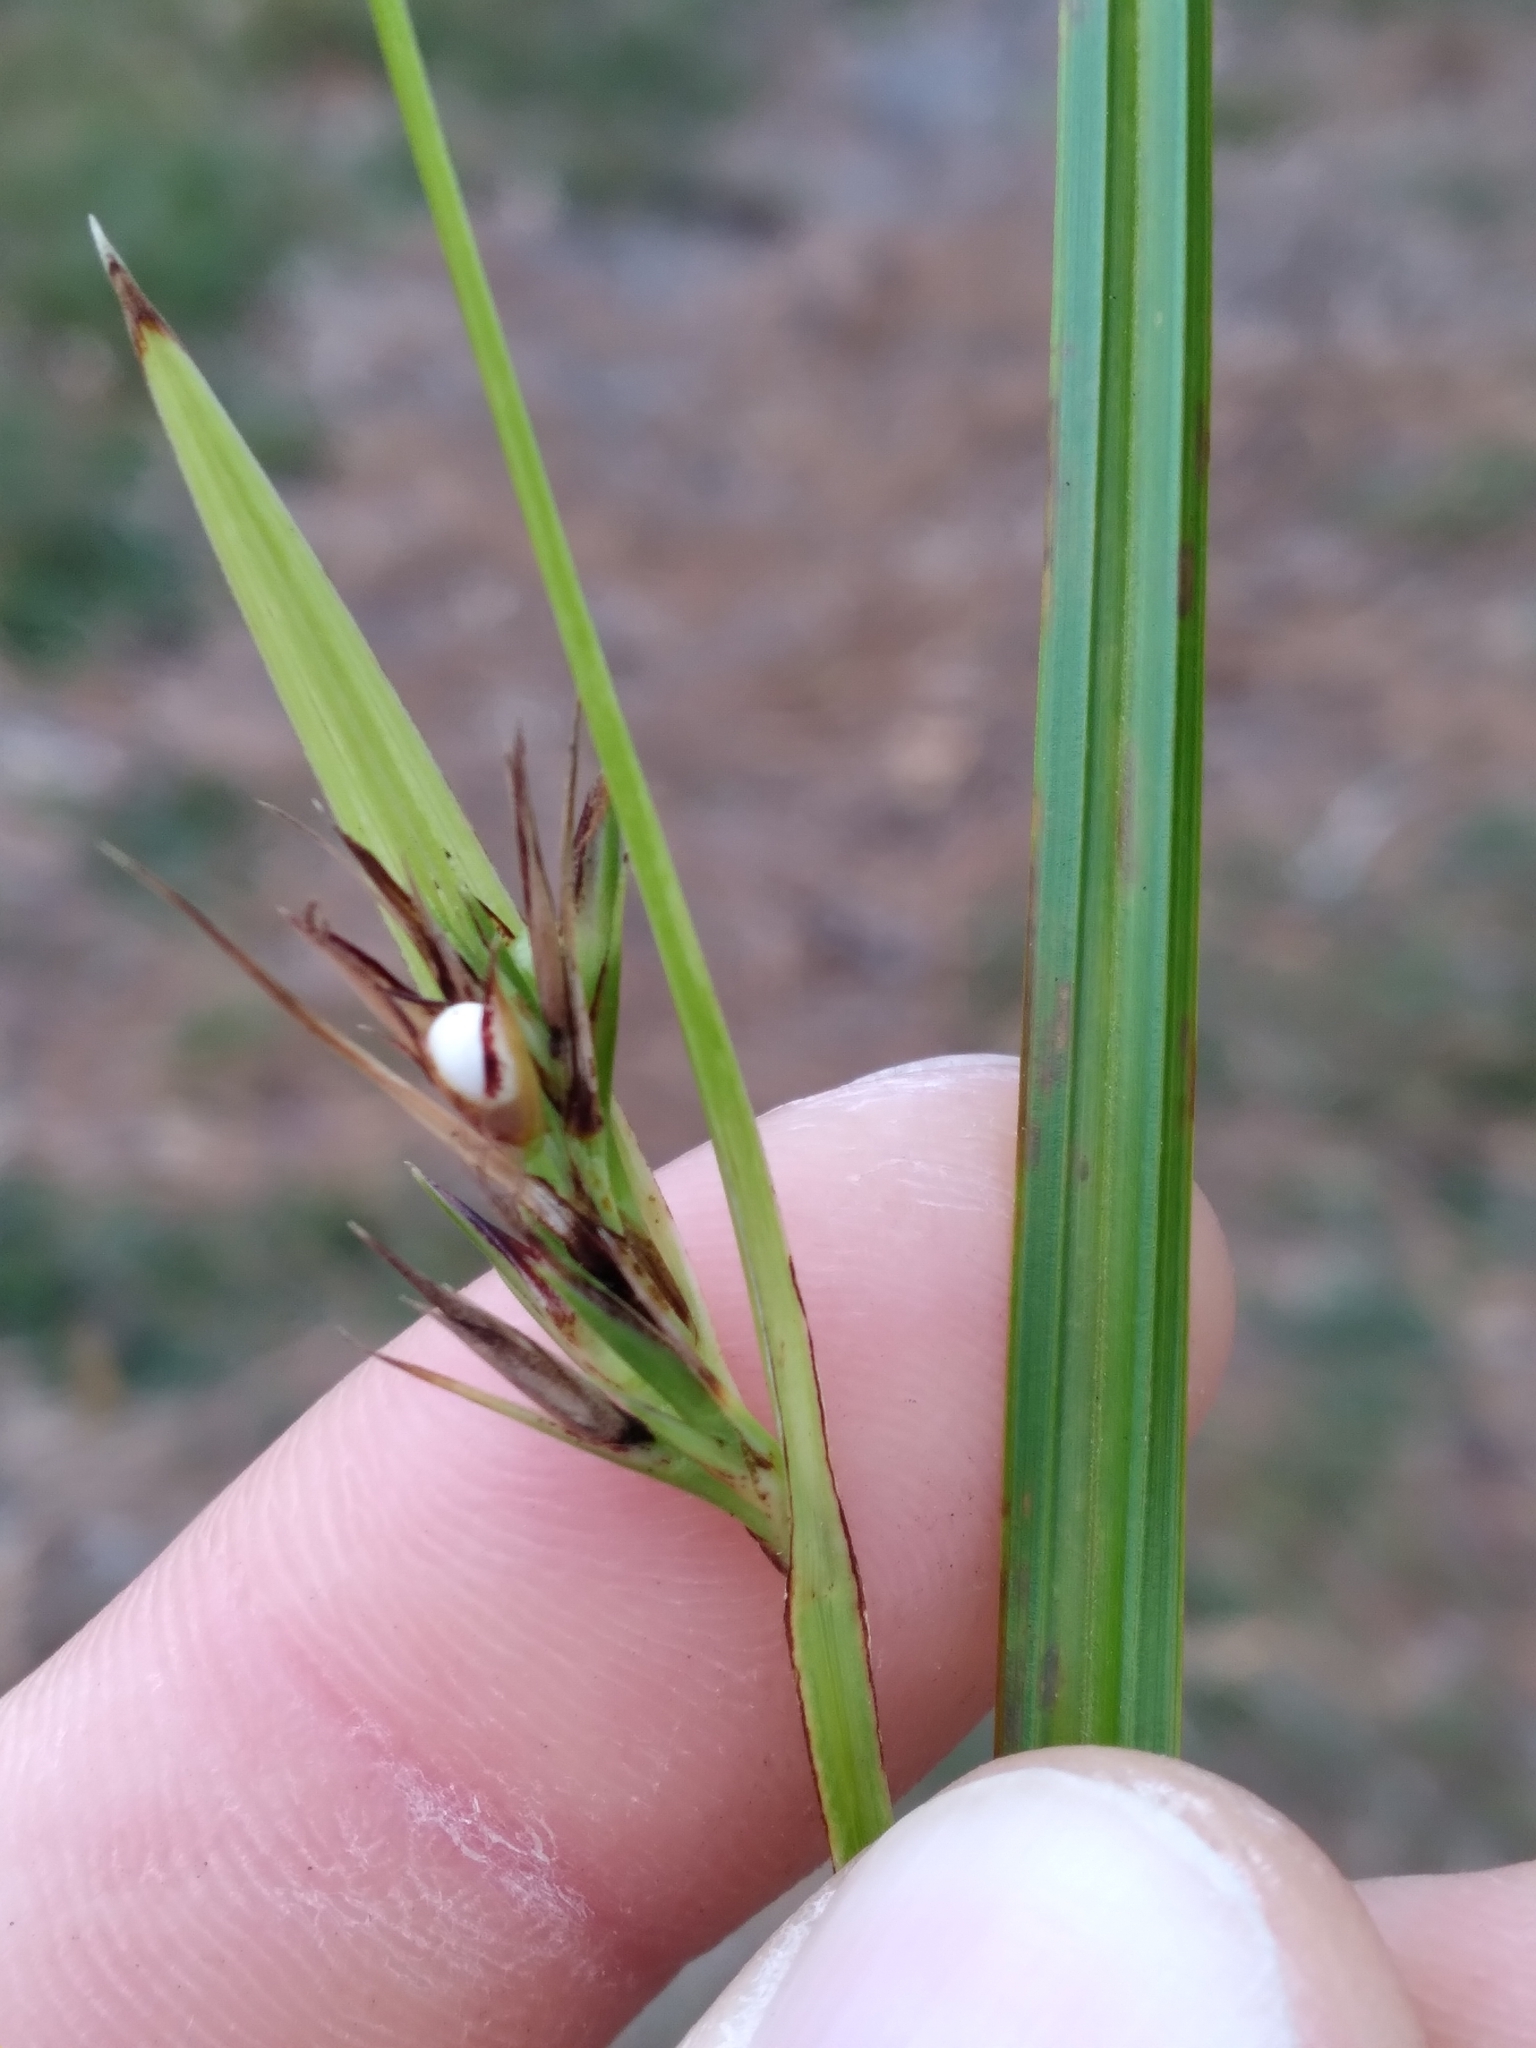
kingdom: Plantae
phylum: Tracheophyta
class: Liliopsida
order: Poales
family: Cyperaceae
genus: Scleria
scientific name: Scleria triglomerata
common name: Whip nutrush
